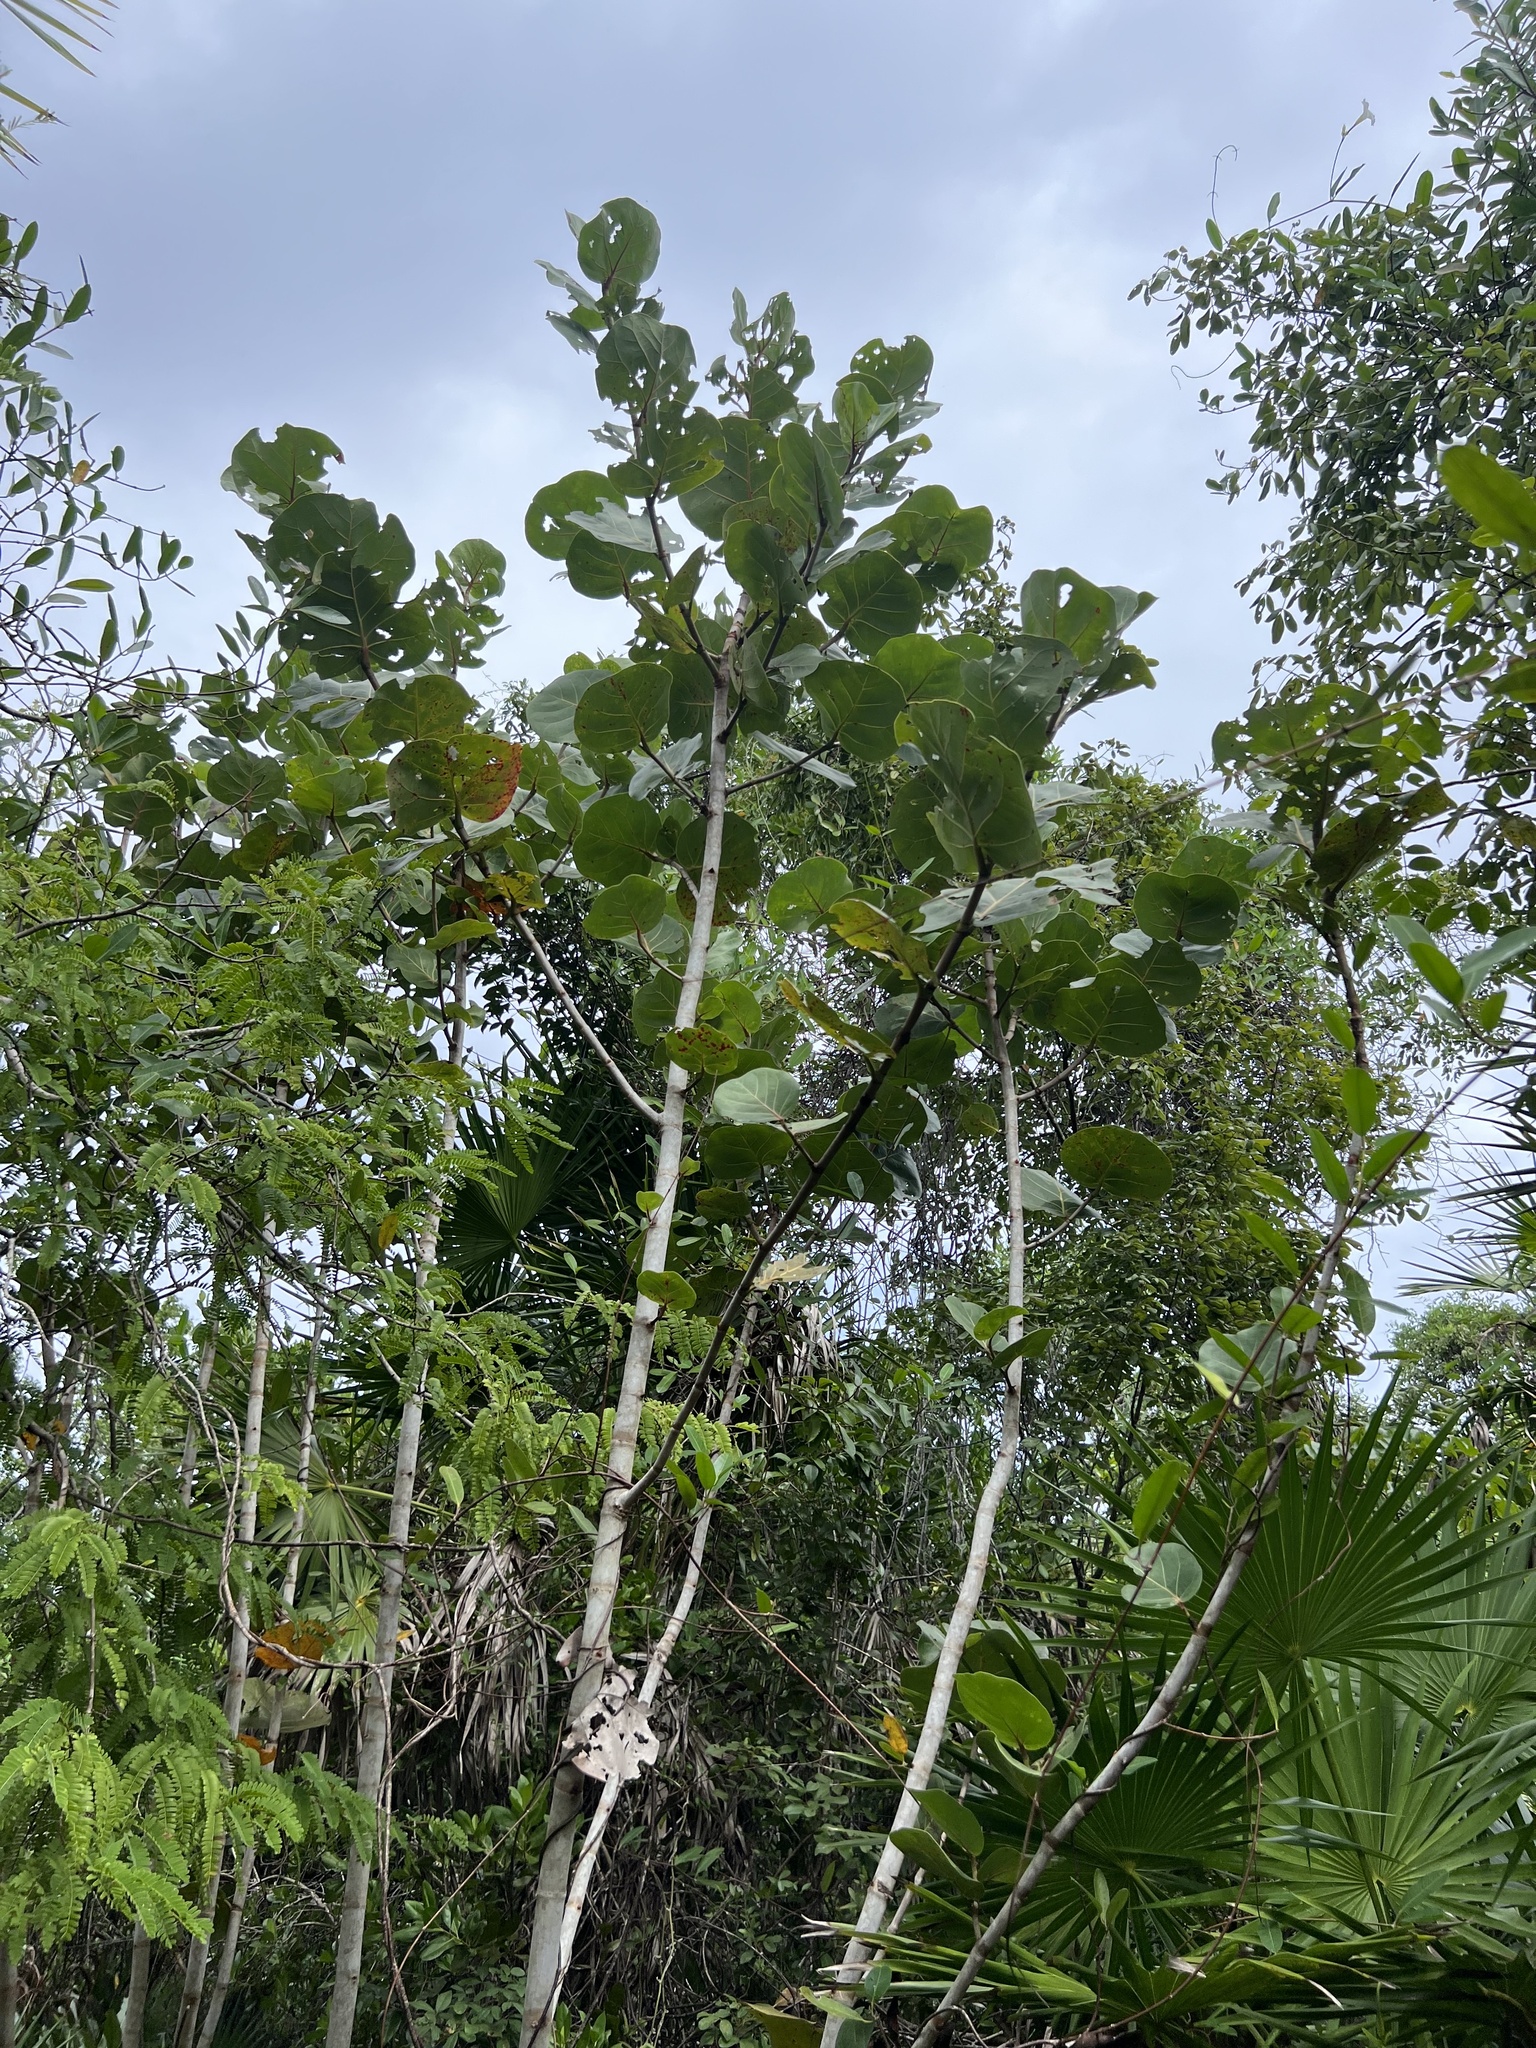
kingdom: Plantae
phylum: Tracheophyta
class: Magnoliopsida
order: Caryophyllales
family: Polygonaceae
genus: Coccoloba
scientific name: Coccoloba uvifera
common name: Seagrape
